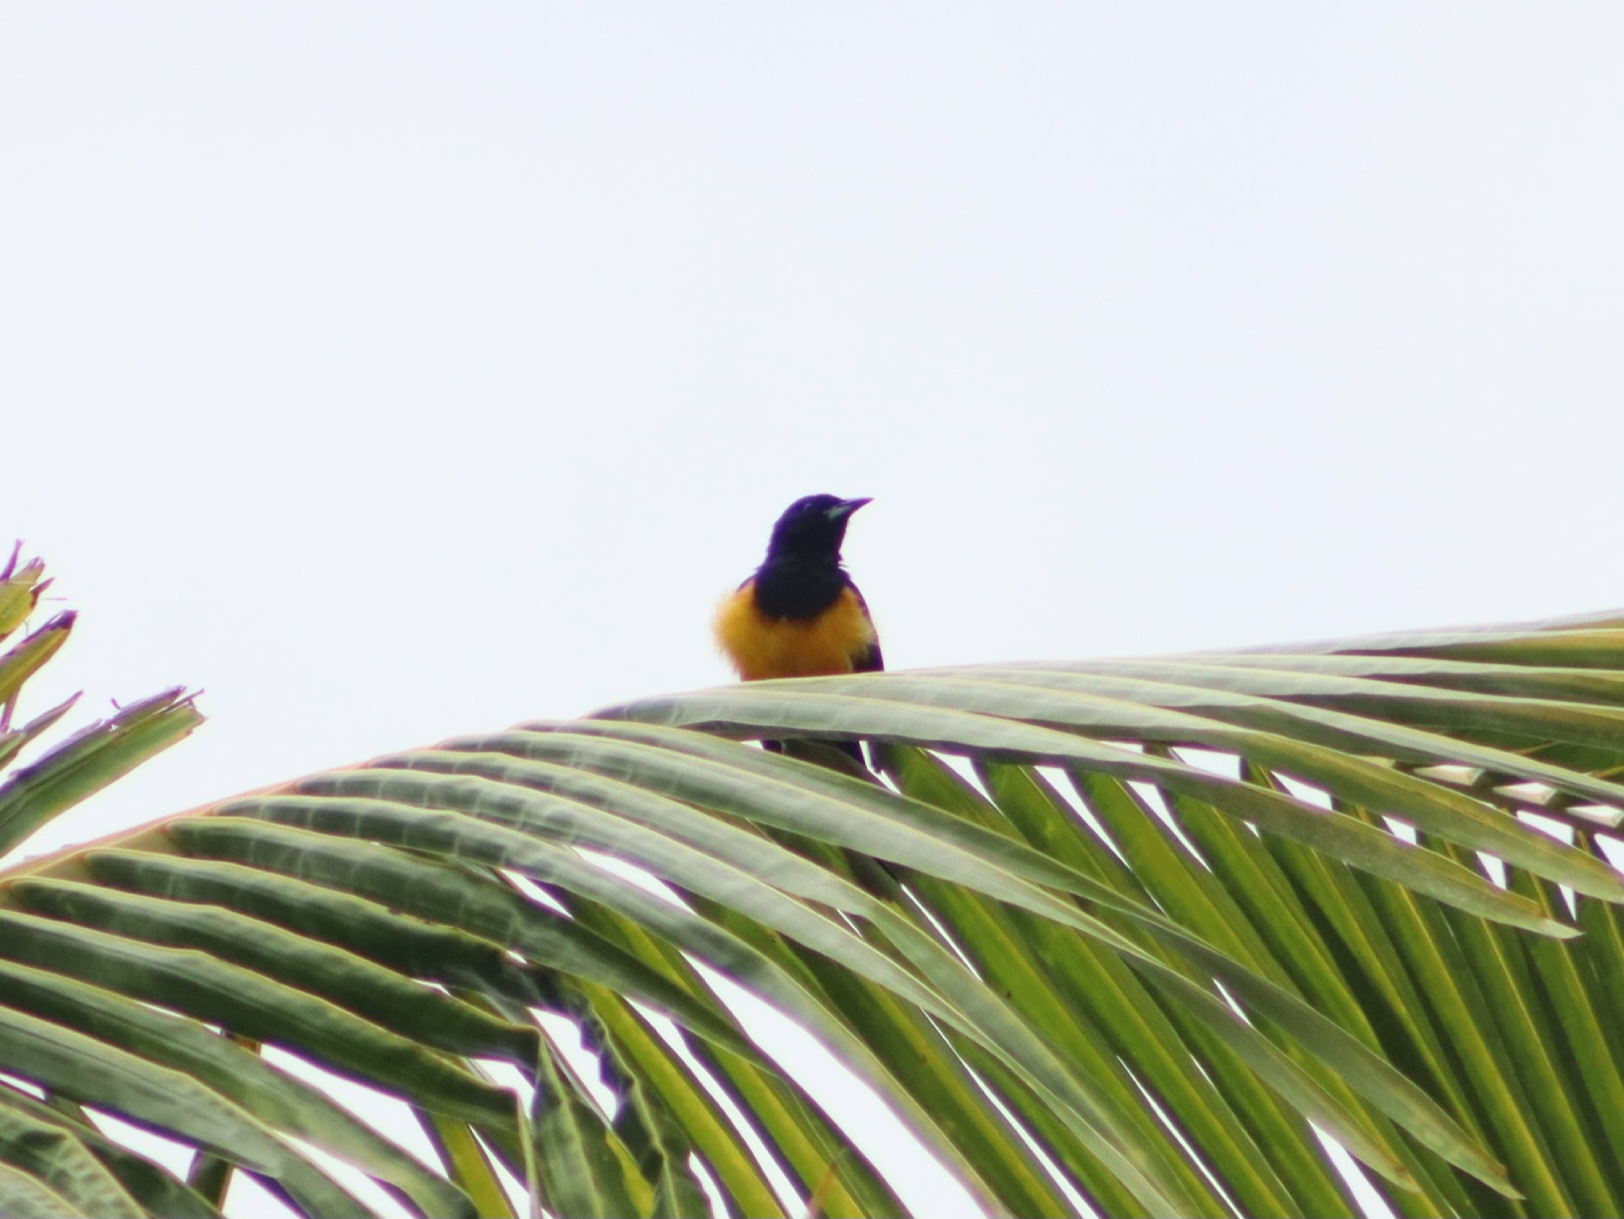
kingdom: Animalia
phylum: Chordata
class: Aves
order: Passeriformes
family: Icteridae
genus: Icterus
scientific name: Icterus wagleri
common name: Black-vented oriole
